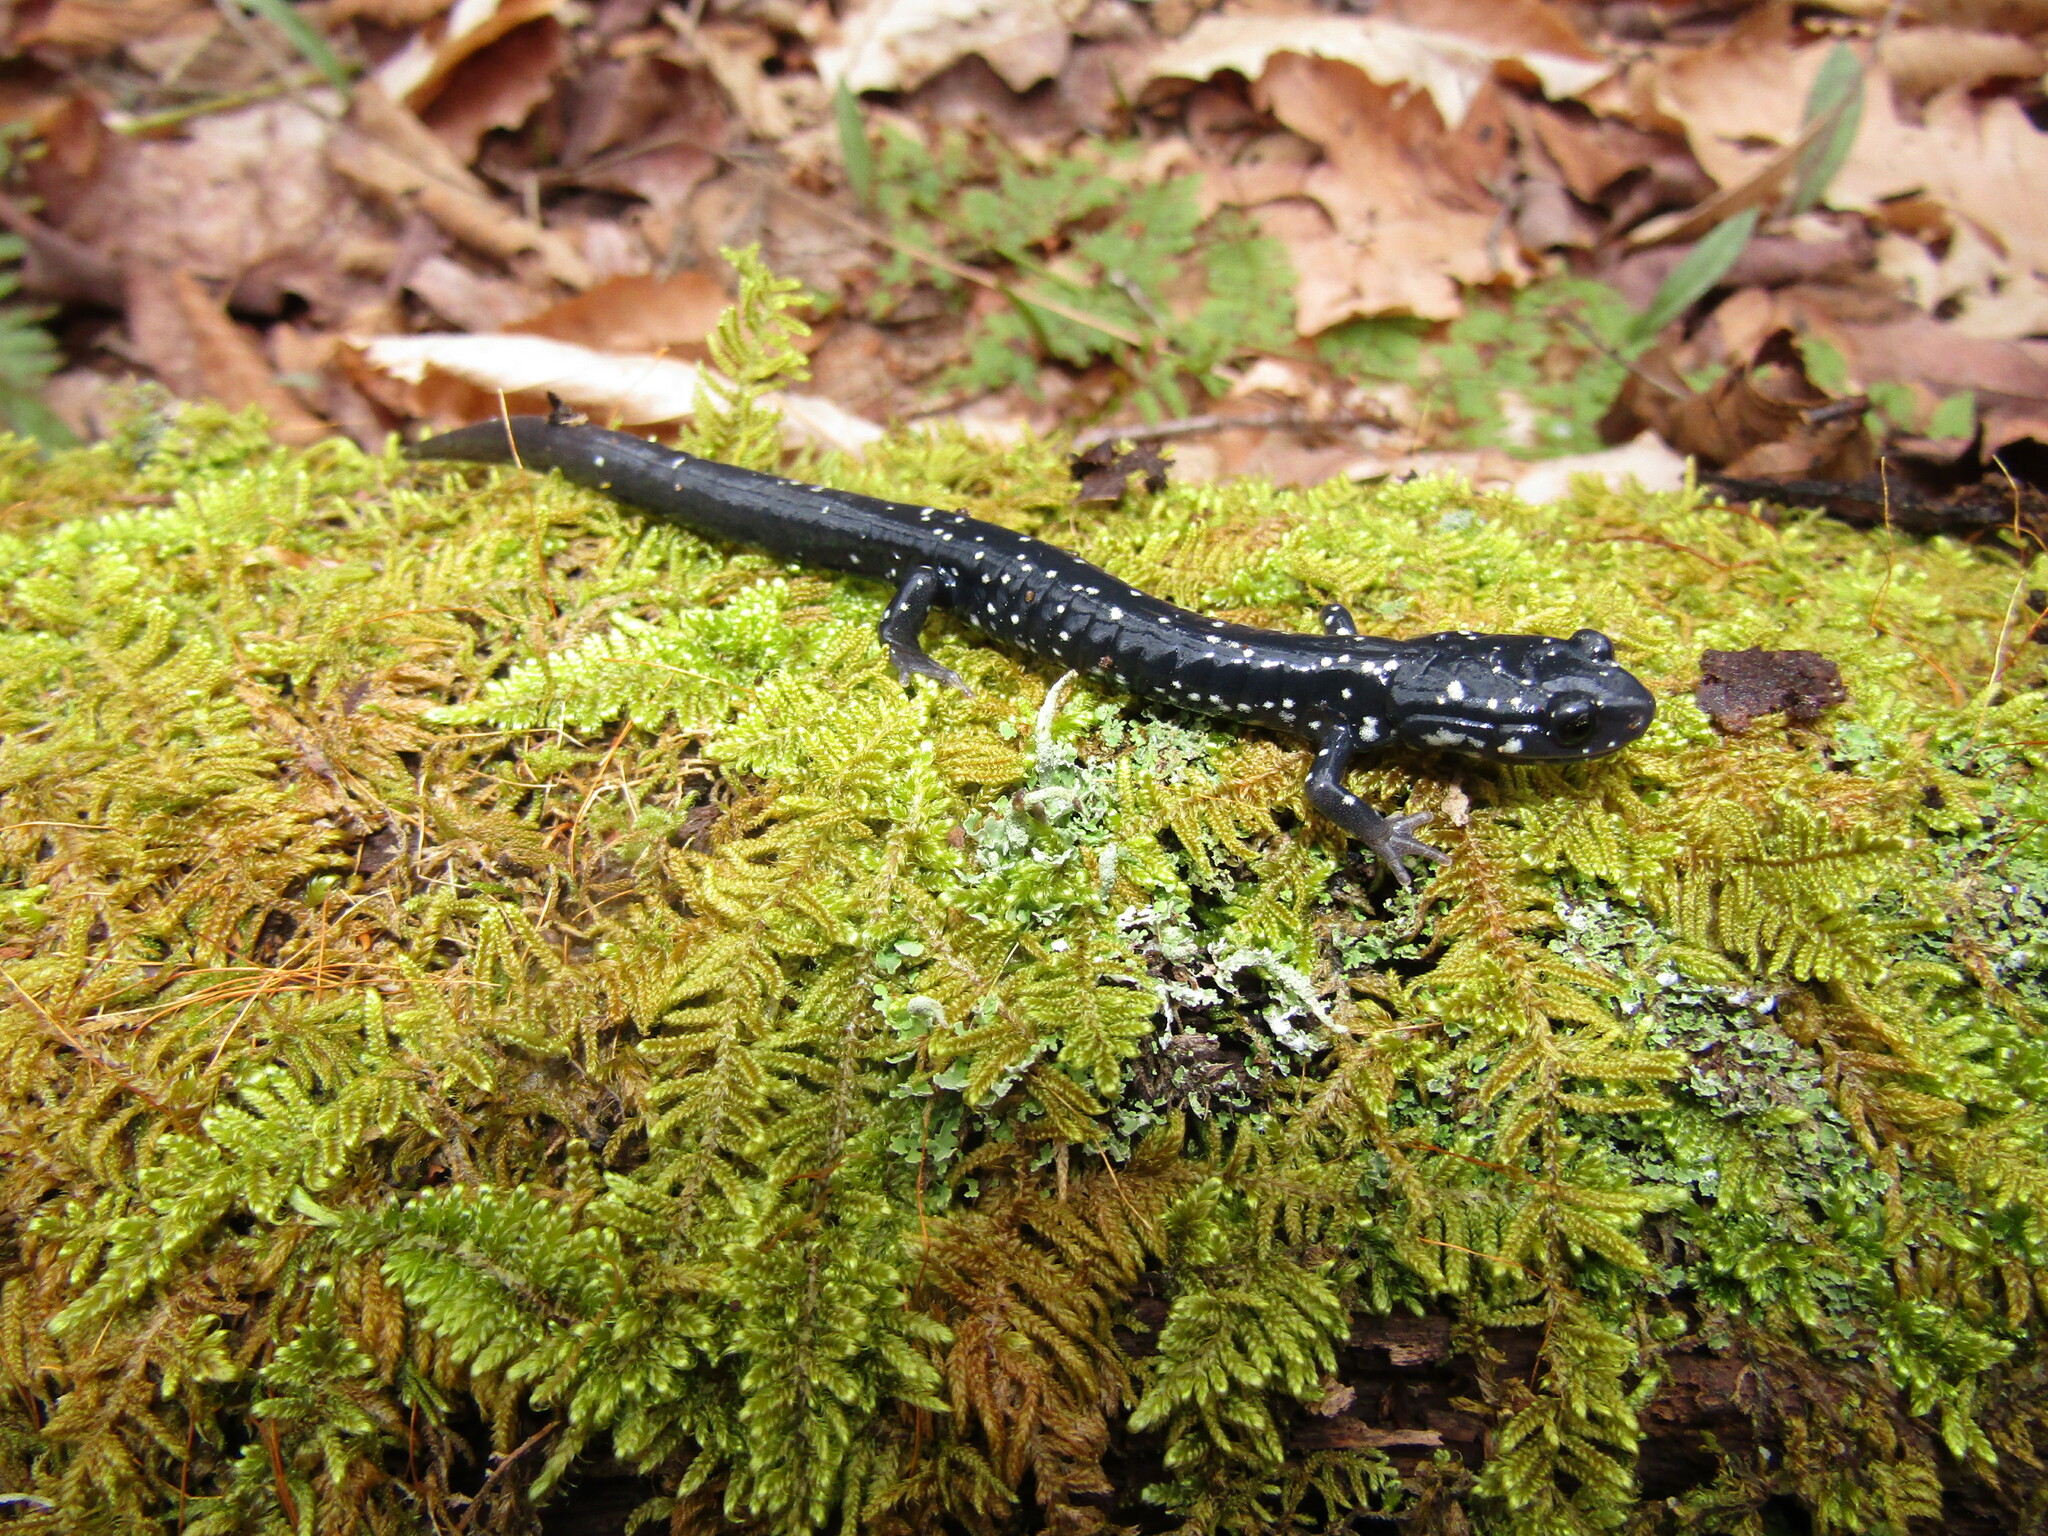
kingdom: Animalia
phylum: Chordata
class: Amphibia
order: Caudata
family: Plethodontidae
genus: Plethodon
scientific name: Plethodon glutinosus
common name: Northern slimy salamander
